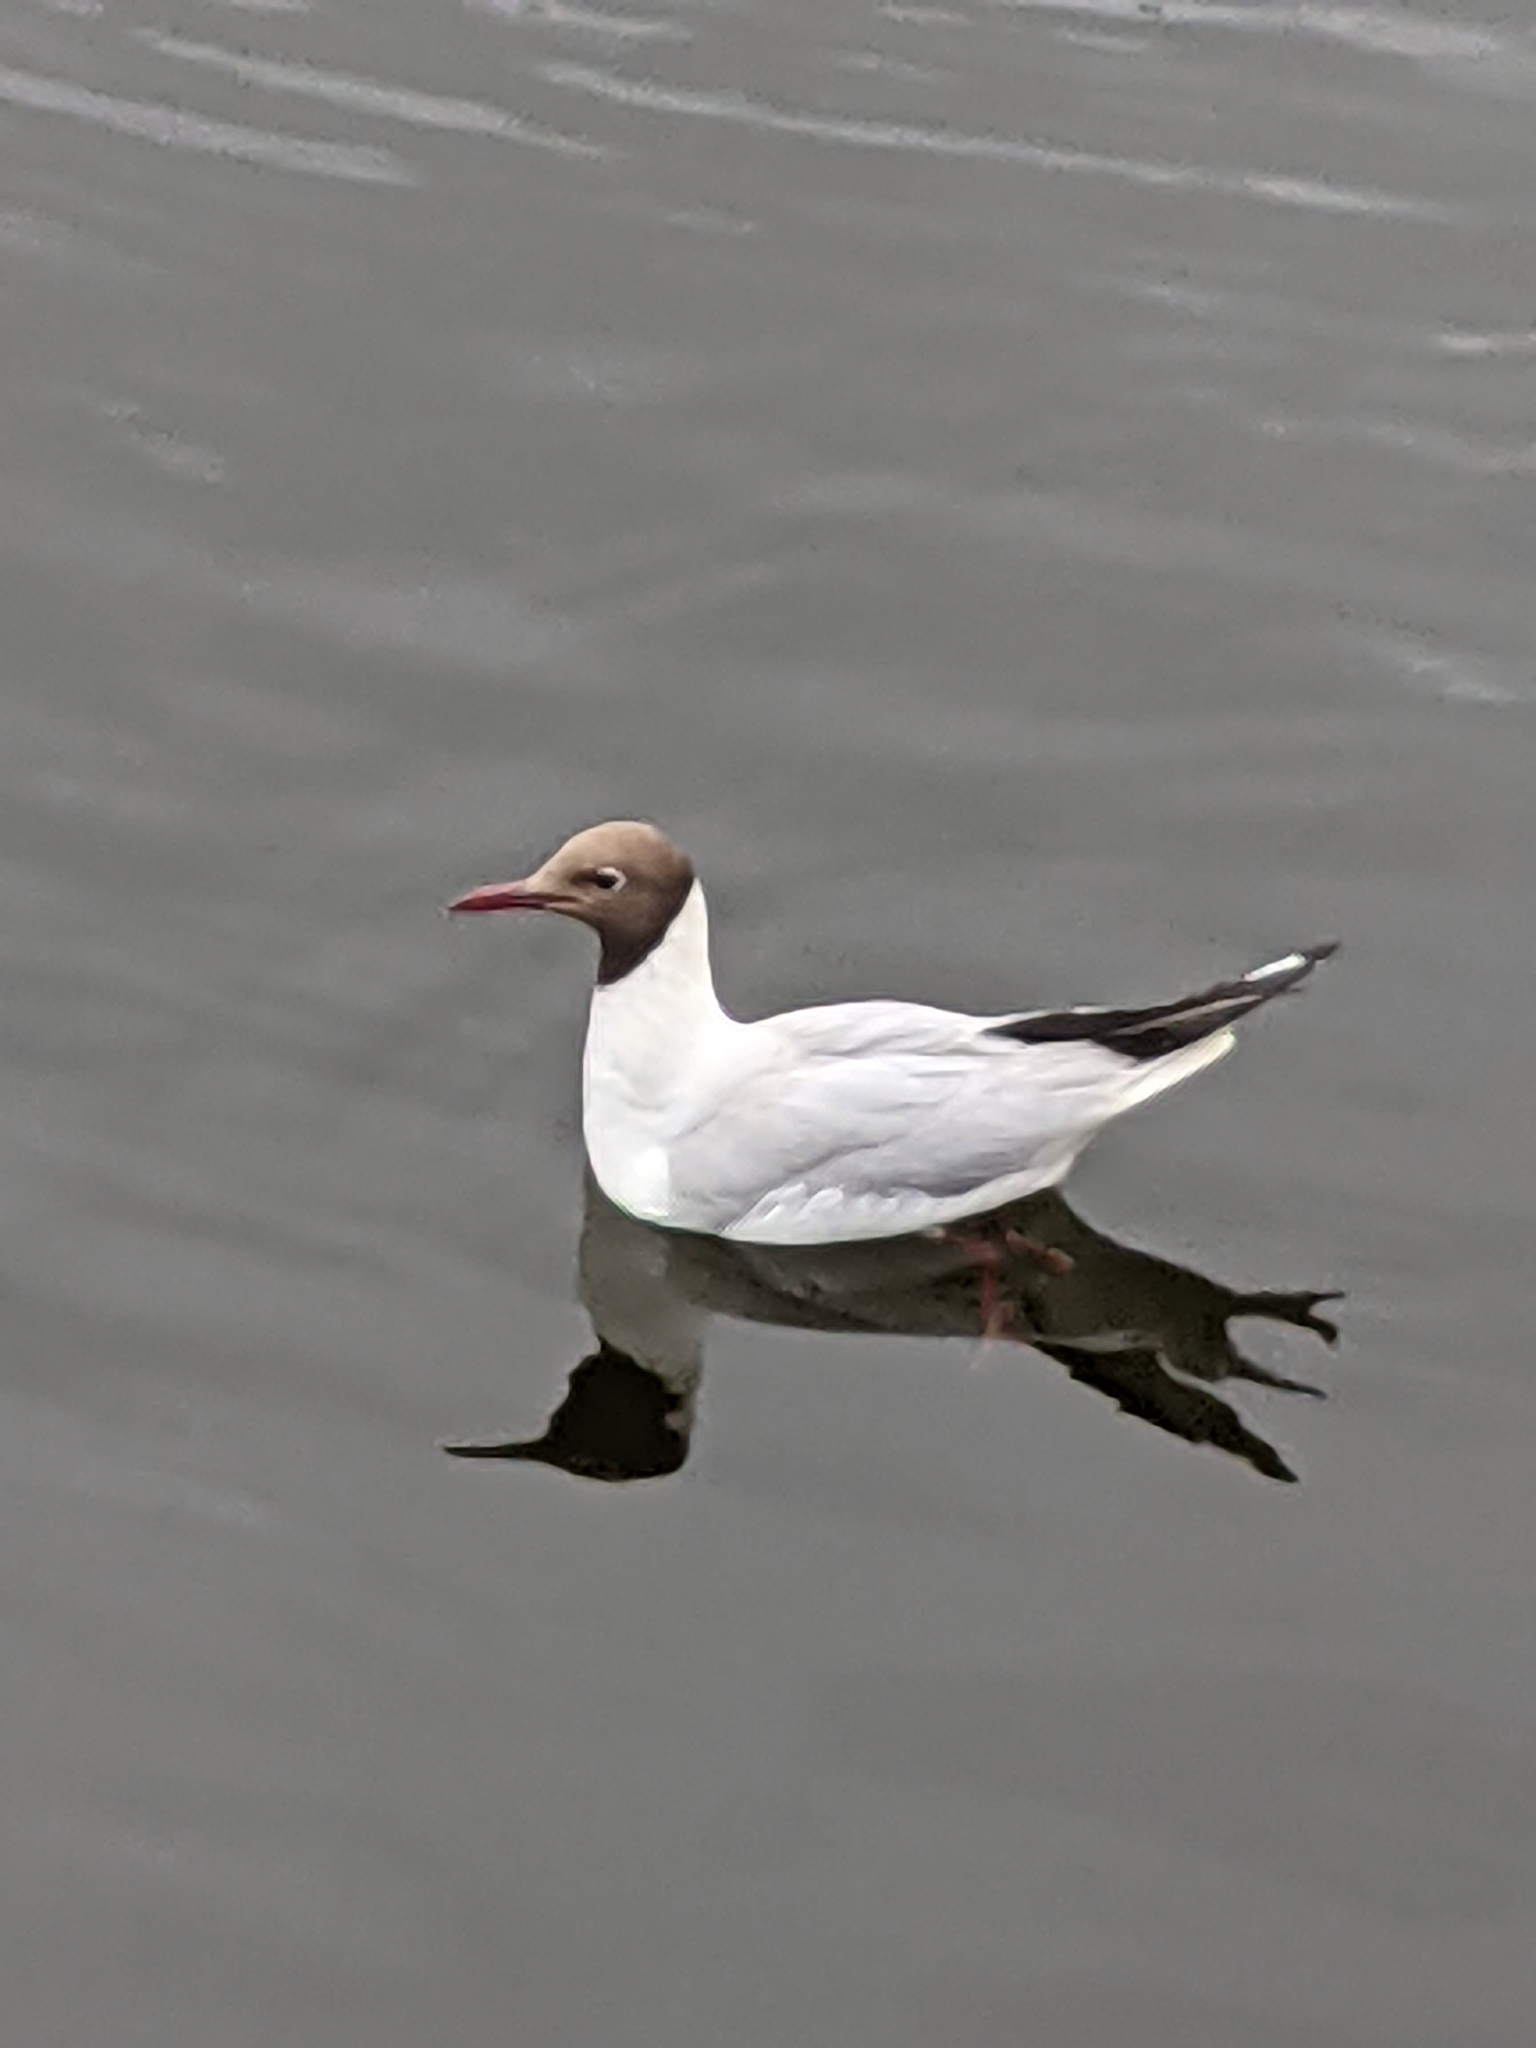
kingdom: Animalia
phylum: Chordata
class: Aves
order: Charadriiformes
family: Laridae
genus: Chroicocephalus
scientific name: Chroicocephalus ridibundus
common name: Black-headed gull
